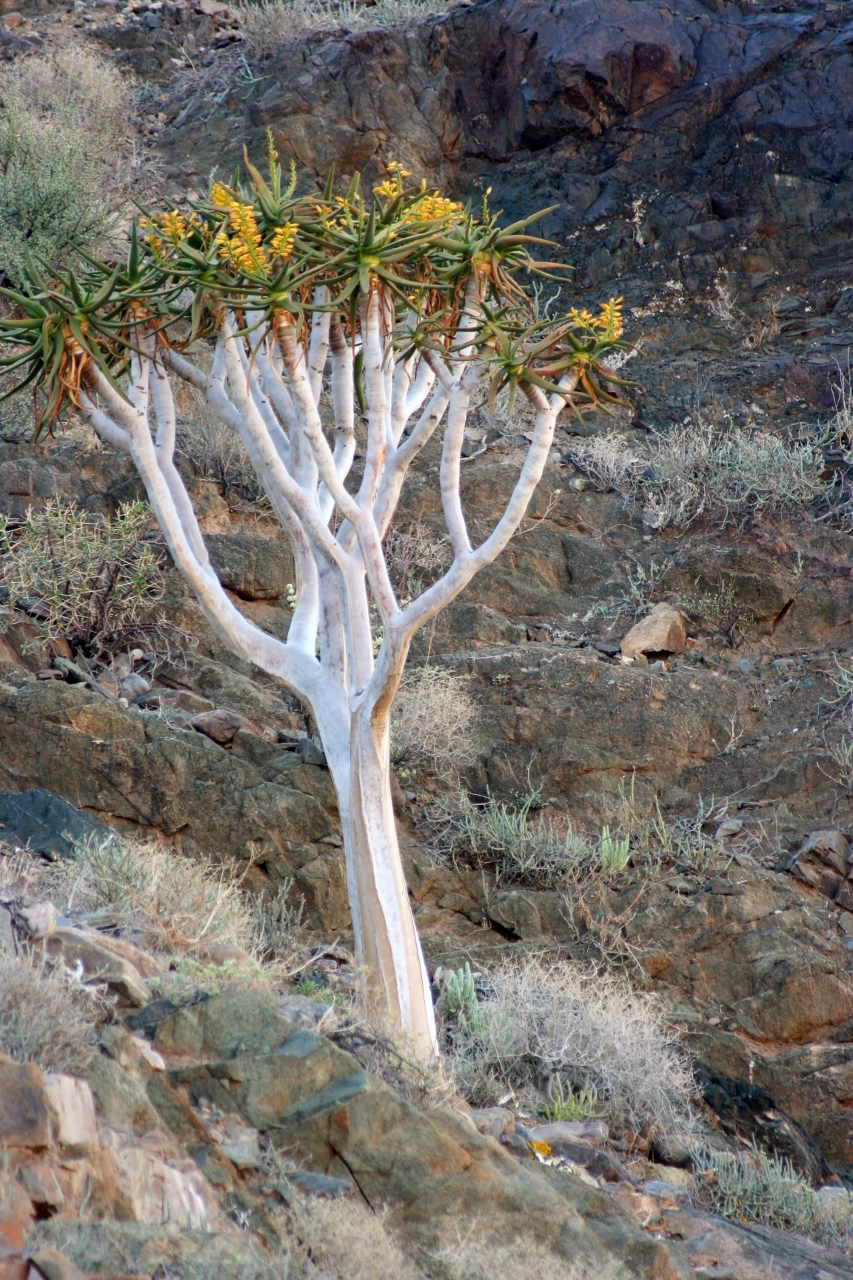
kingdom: Plantae
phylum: Tracheophyta
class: Liliopsida
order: Asparagales
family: Asphodelaceae
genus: Aloidendron
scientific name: Aloidendron dichotomum
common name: Quiver tree
